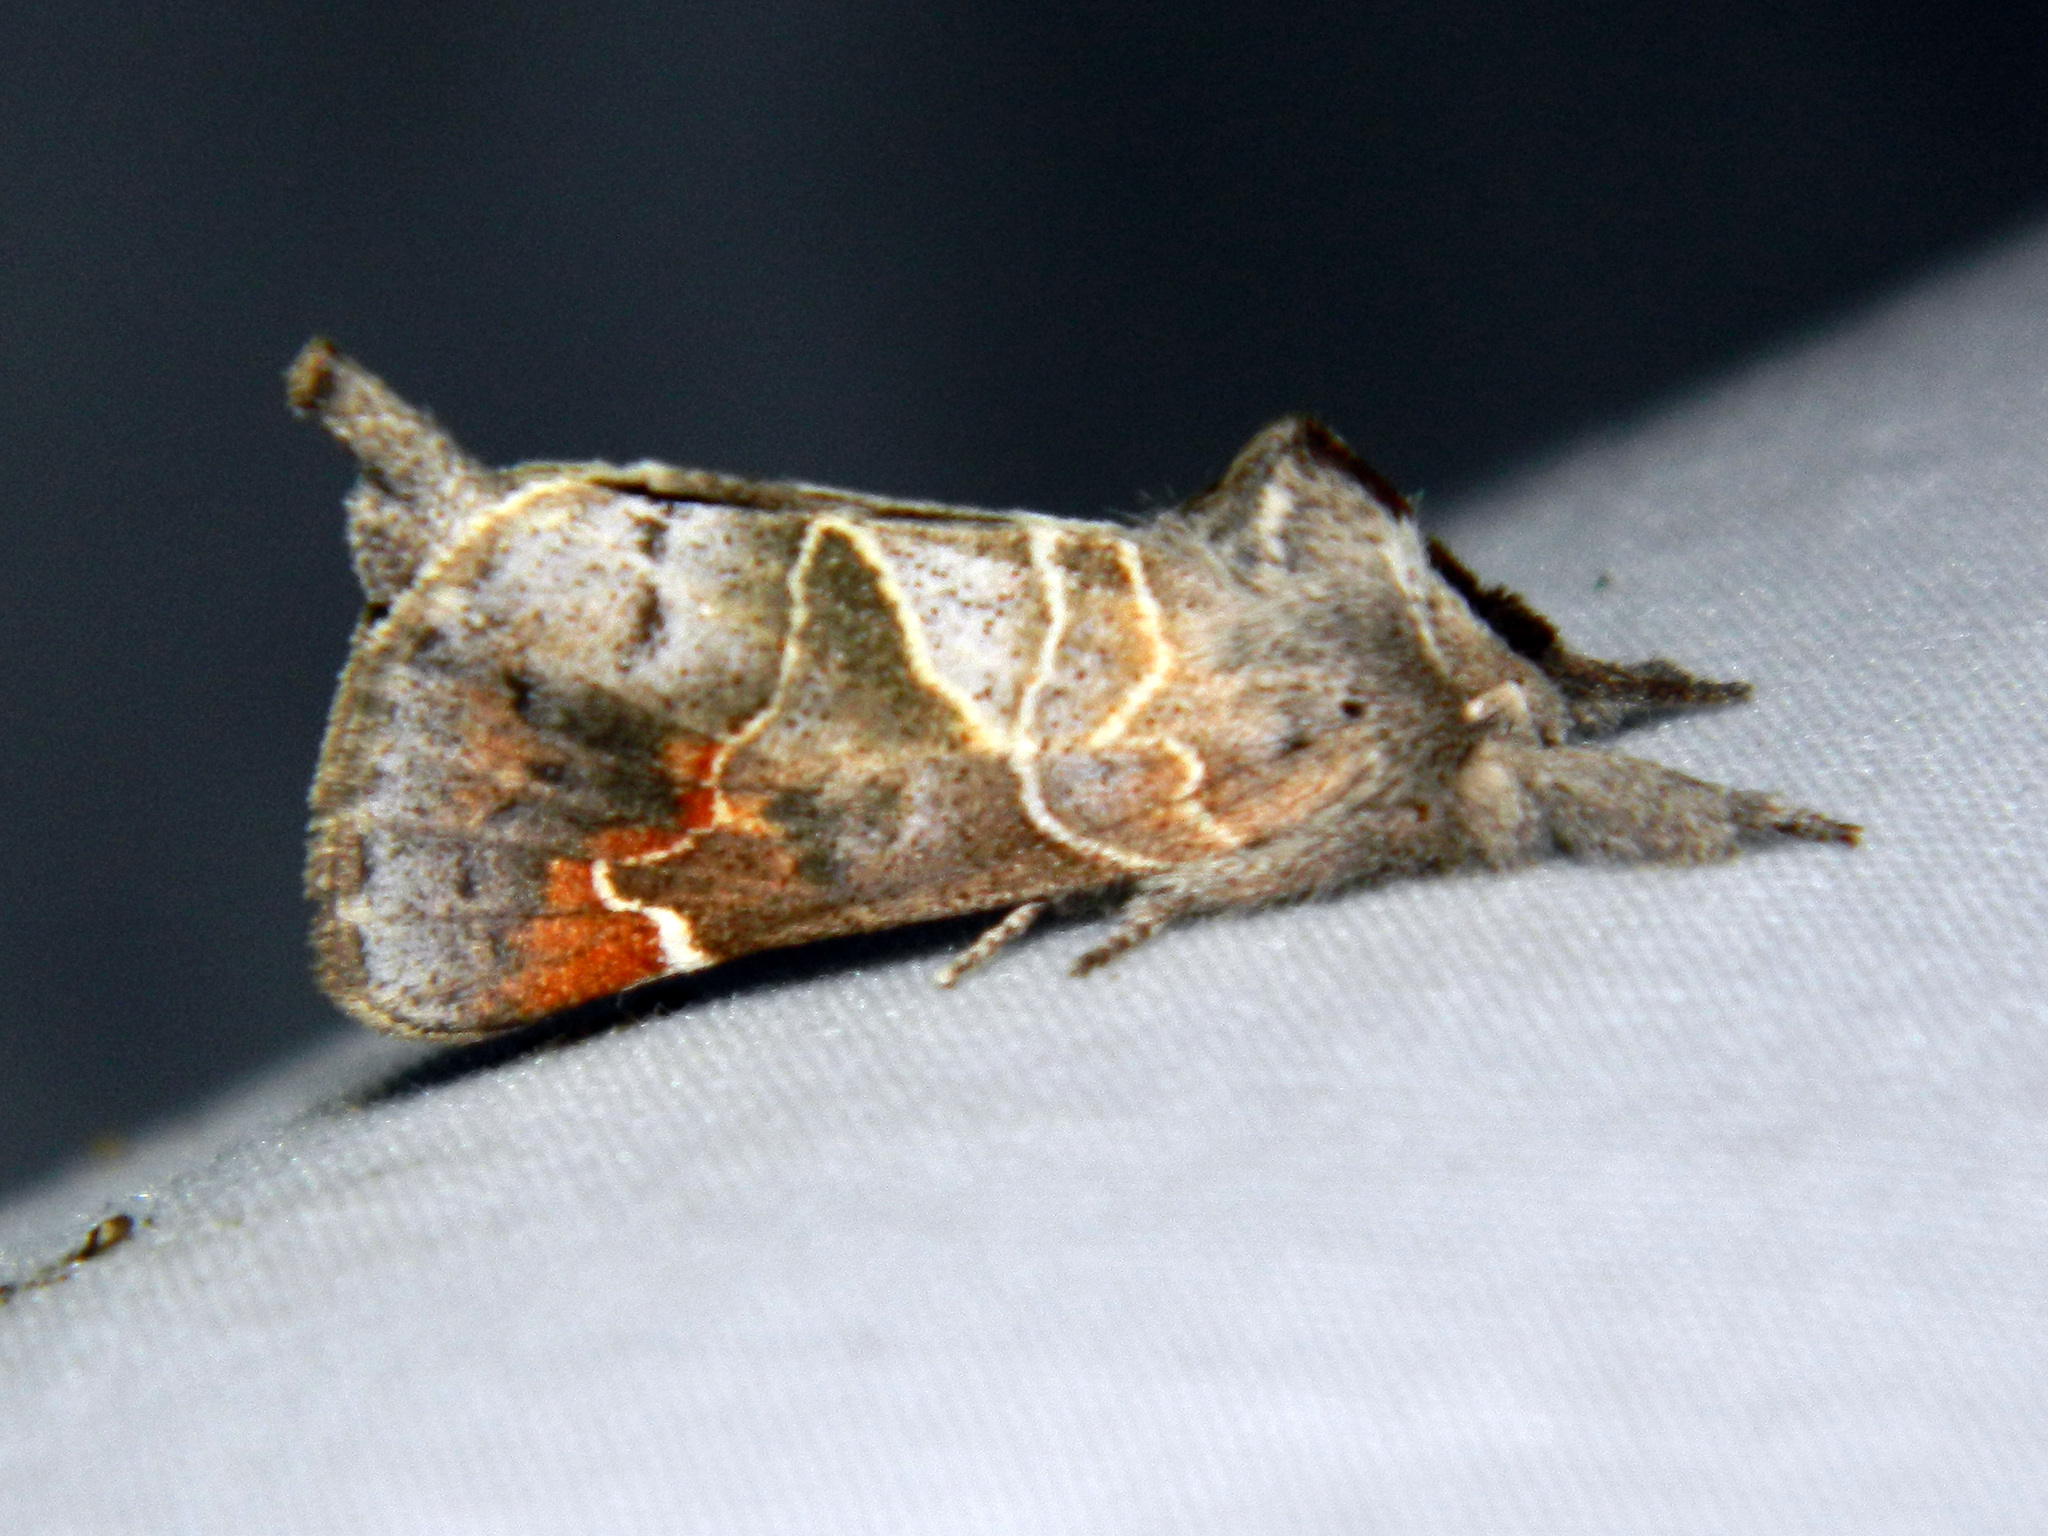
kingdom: Animalia
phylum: Arthropoda
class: Insecta
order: Lepidoptera
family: Notodontidae
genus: Clostera
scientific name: Clostera apicalis
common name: Apical prominent
